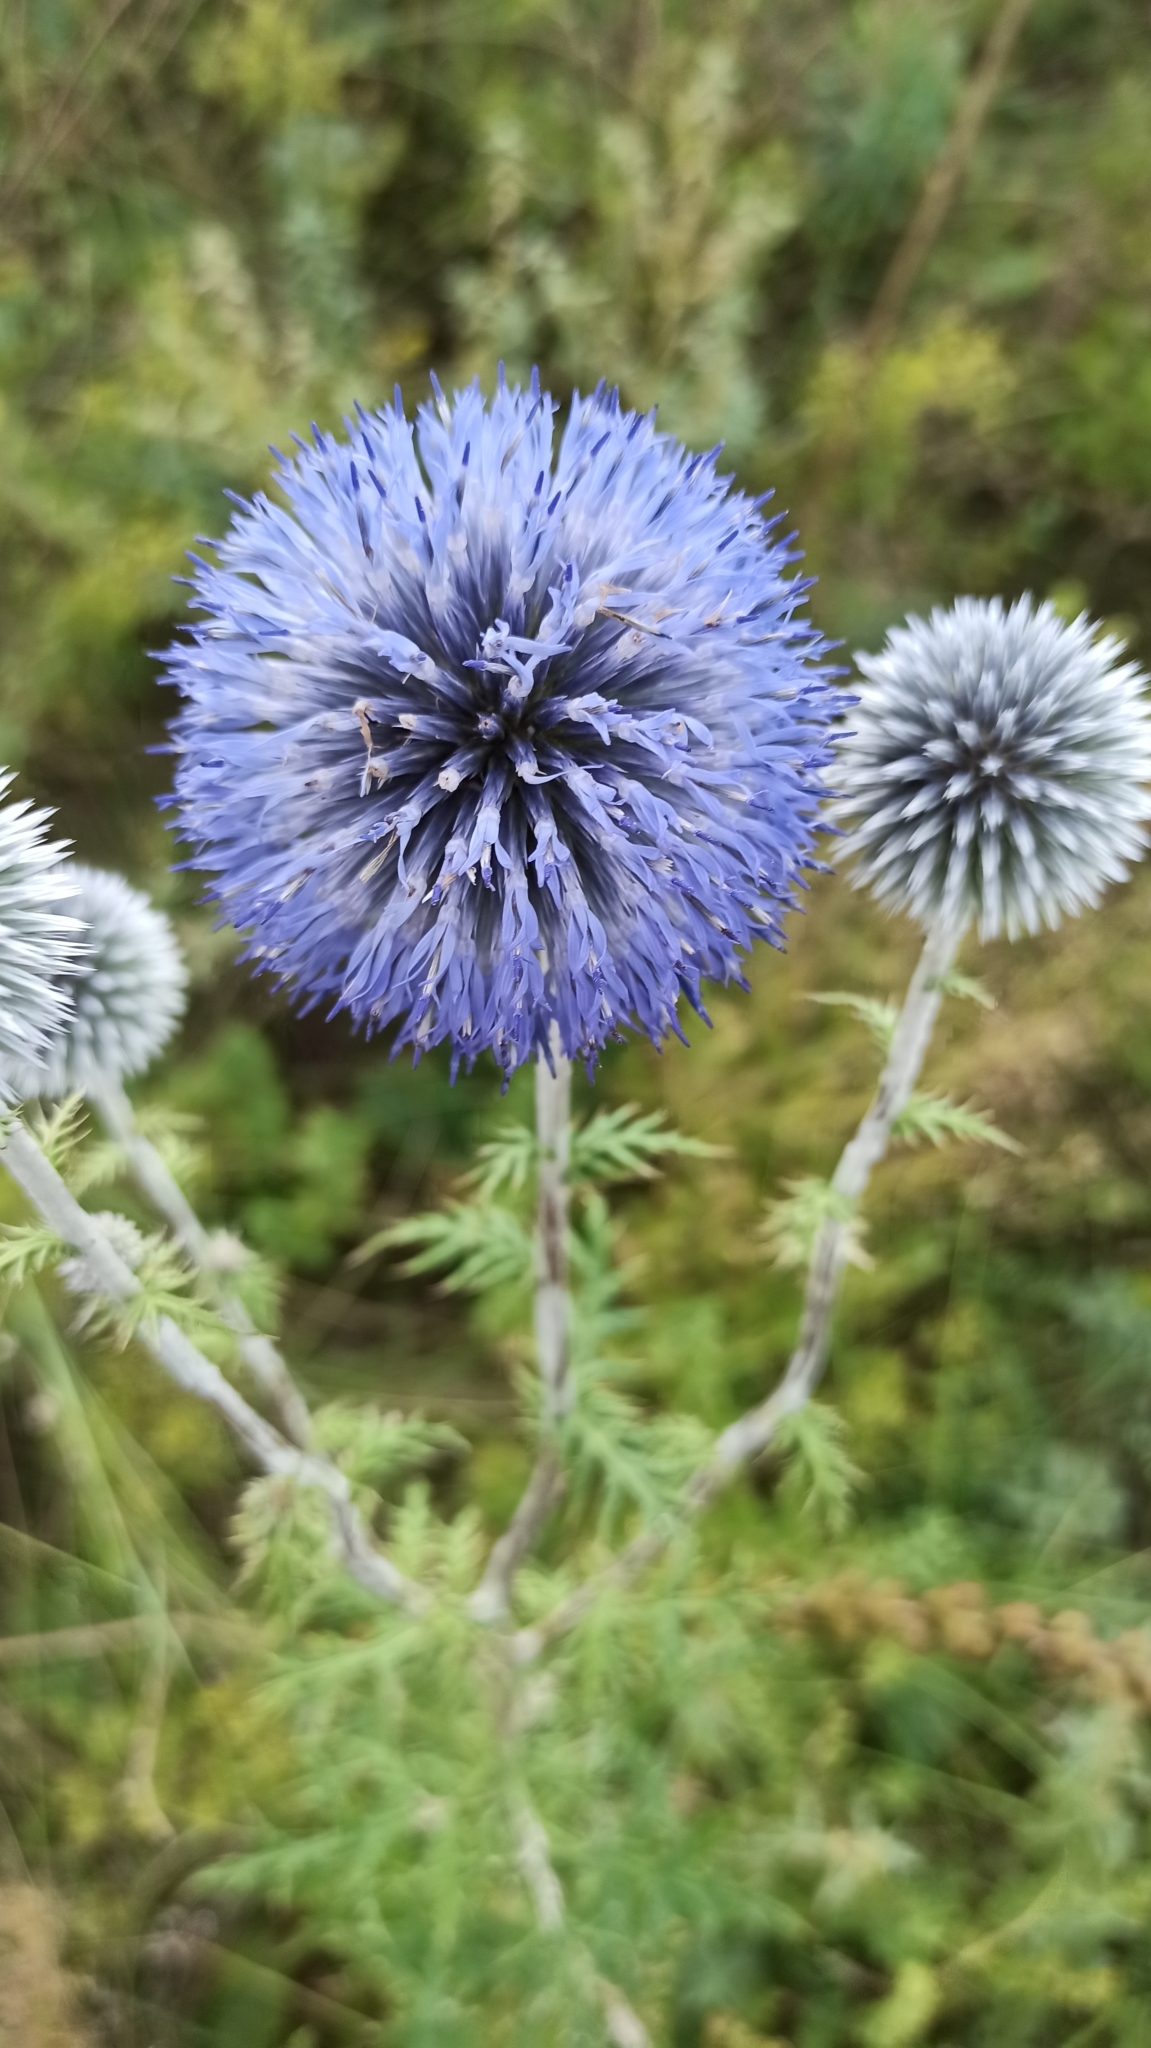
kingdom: Plantae
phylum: Tracheophyta
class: Magnoliopsida
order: Asterales
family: Asteraceae
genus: Echinops
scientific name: Echinops ritro
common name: Globe thistle
